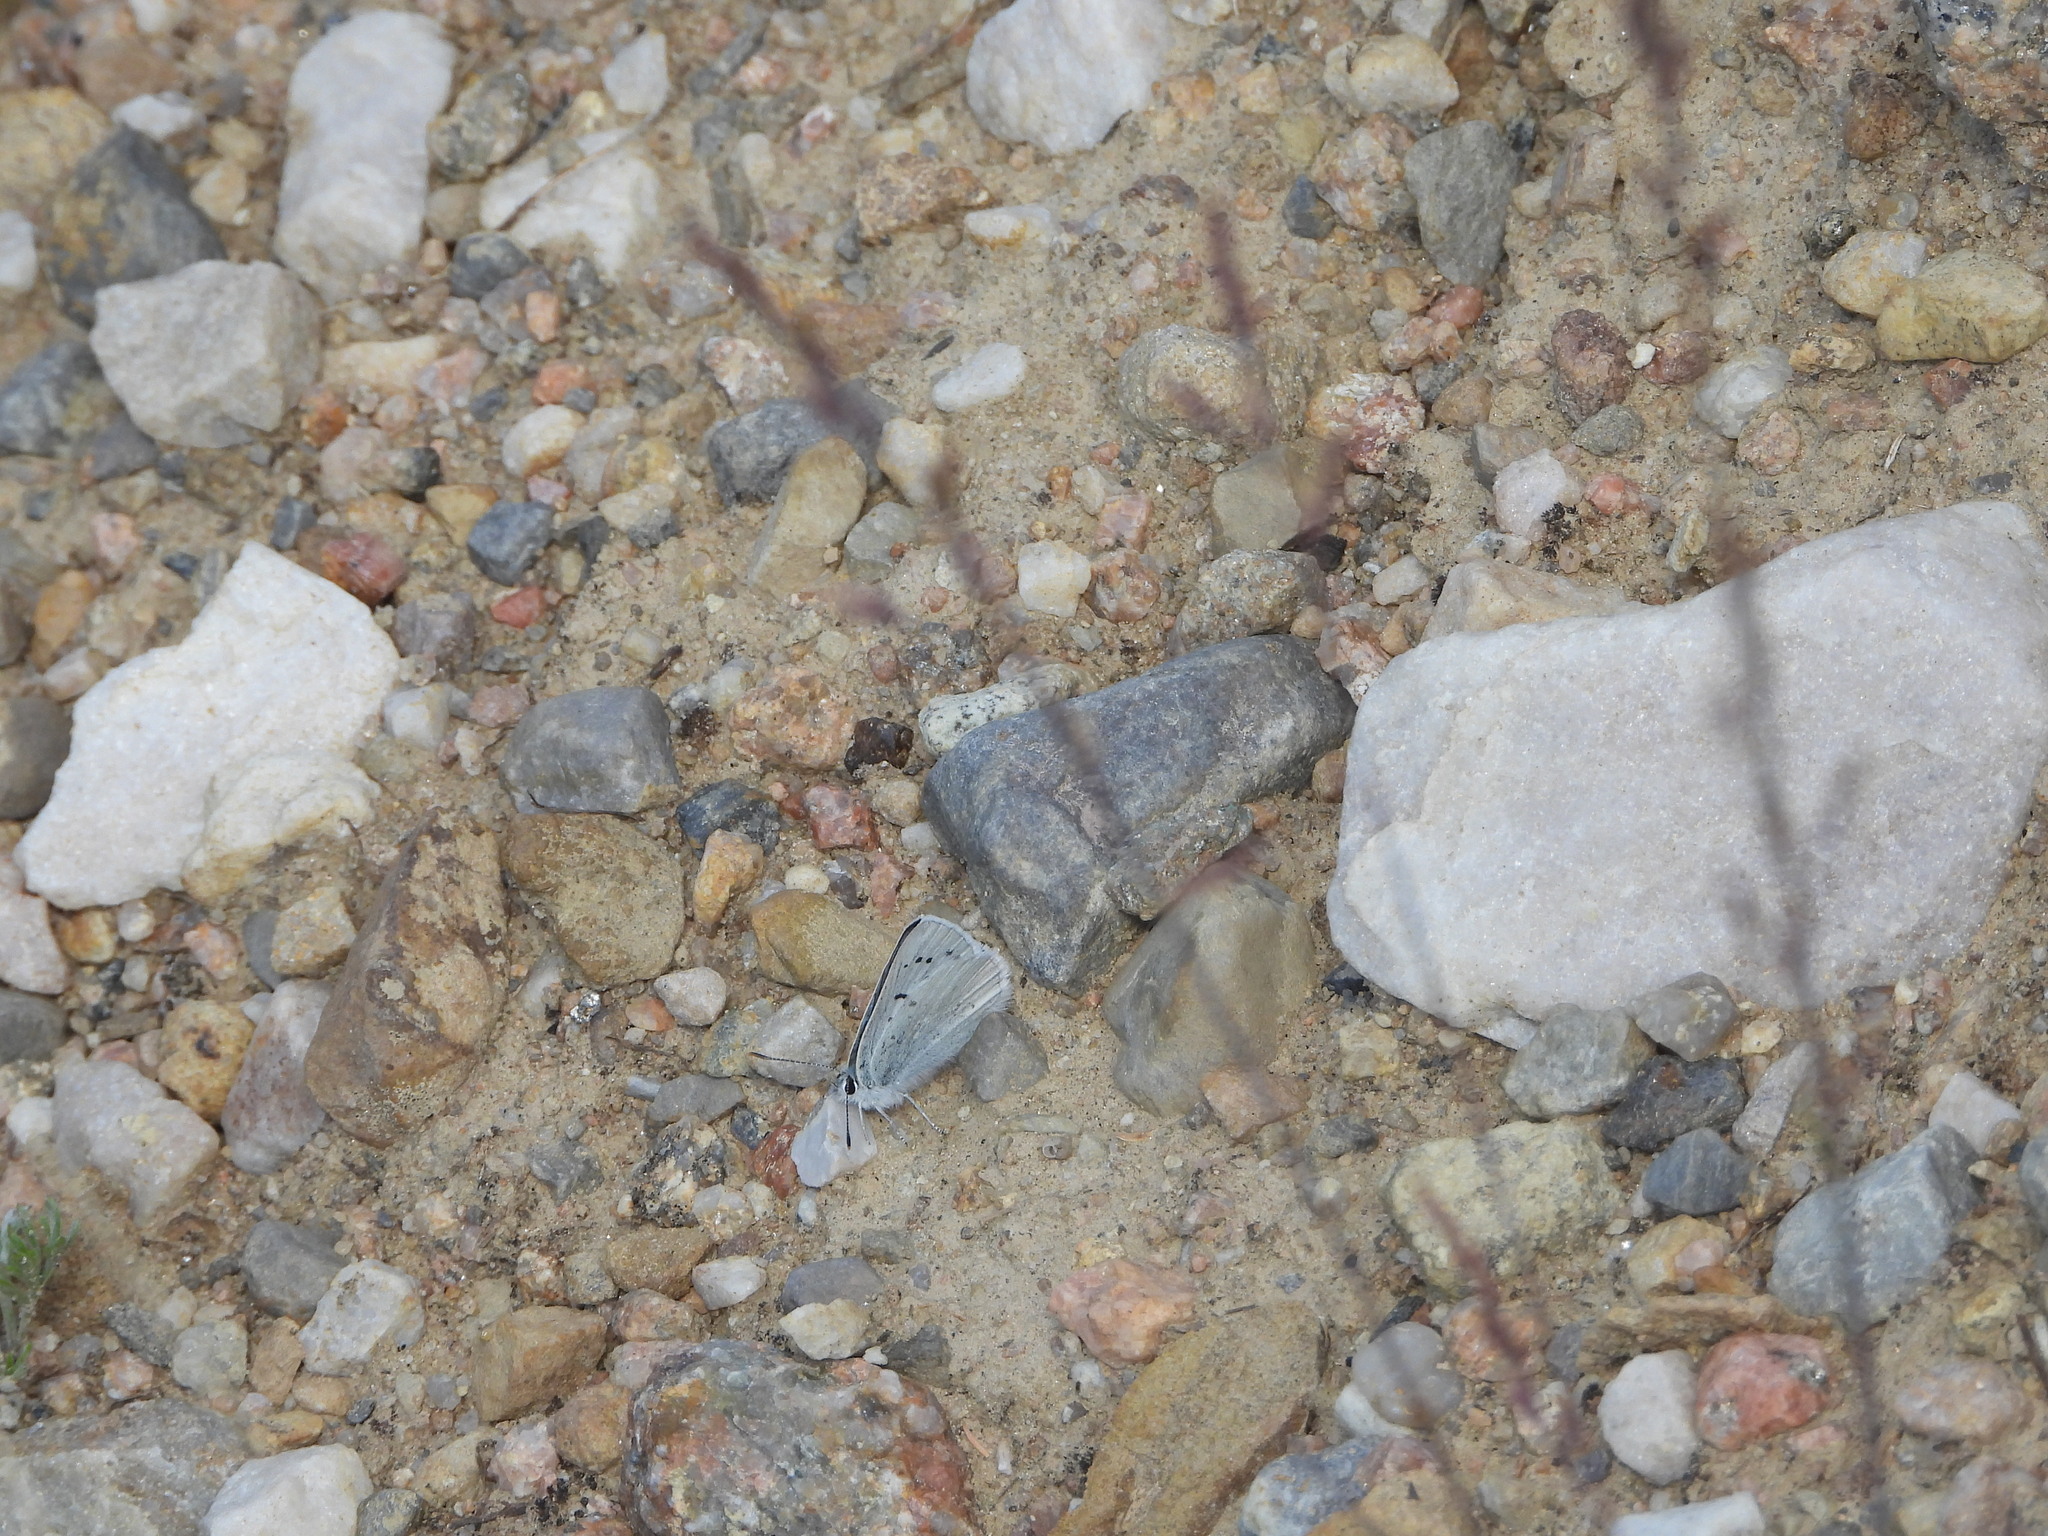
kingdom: Animalia
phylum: Arthropoda
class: Insecta
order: Lepidoptera
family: Lycaenidae
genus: Tharsalea
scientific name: Tharsalea heteronea
